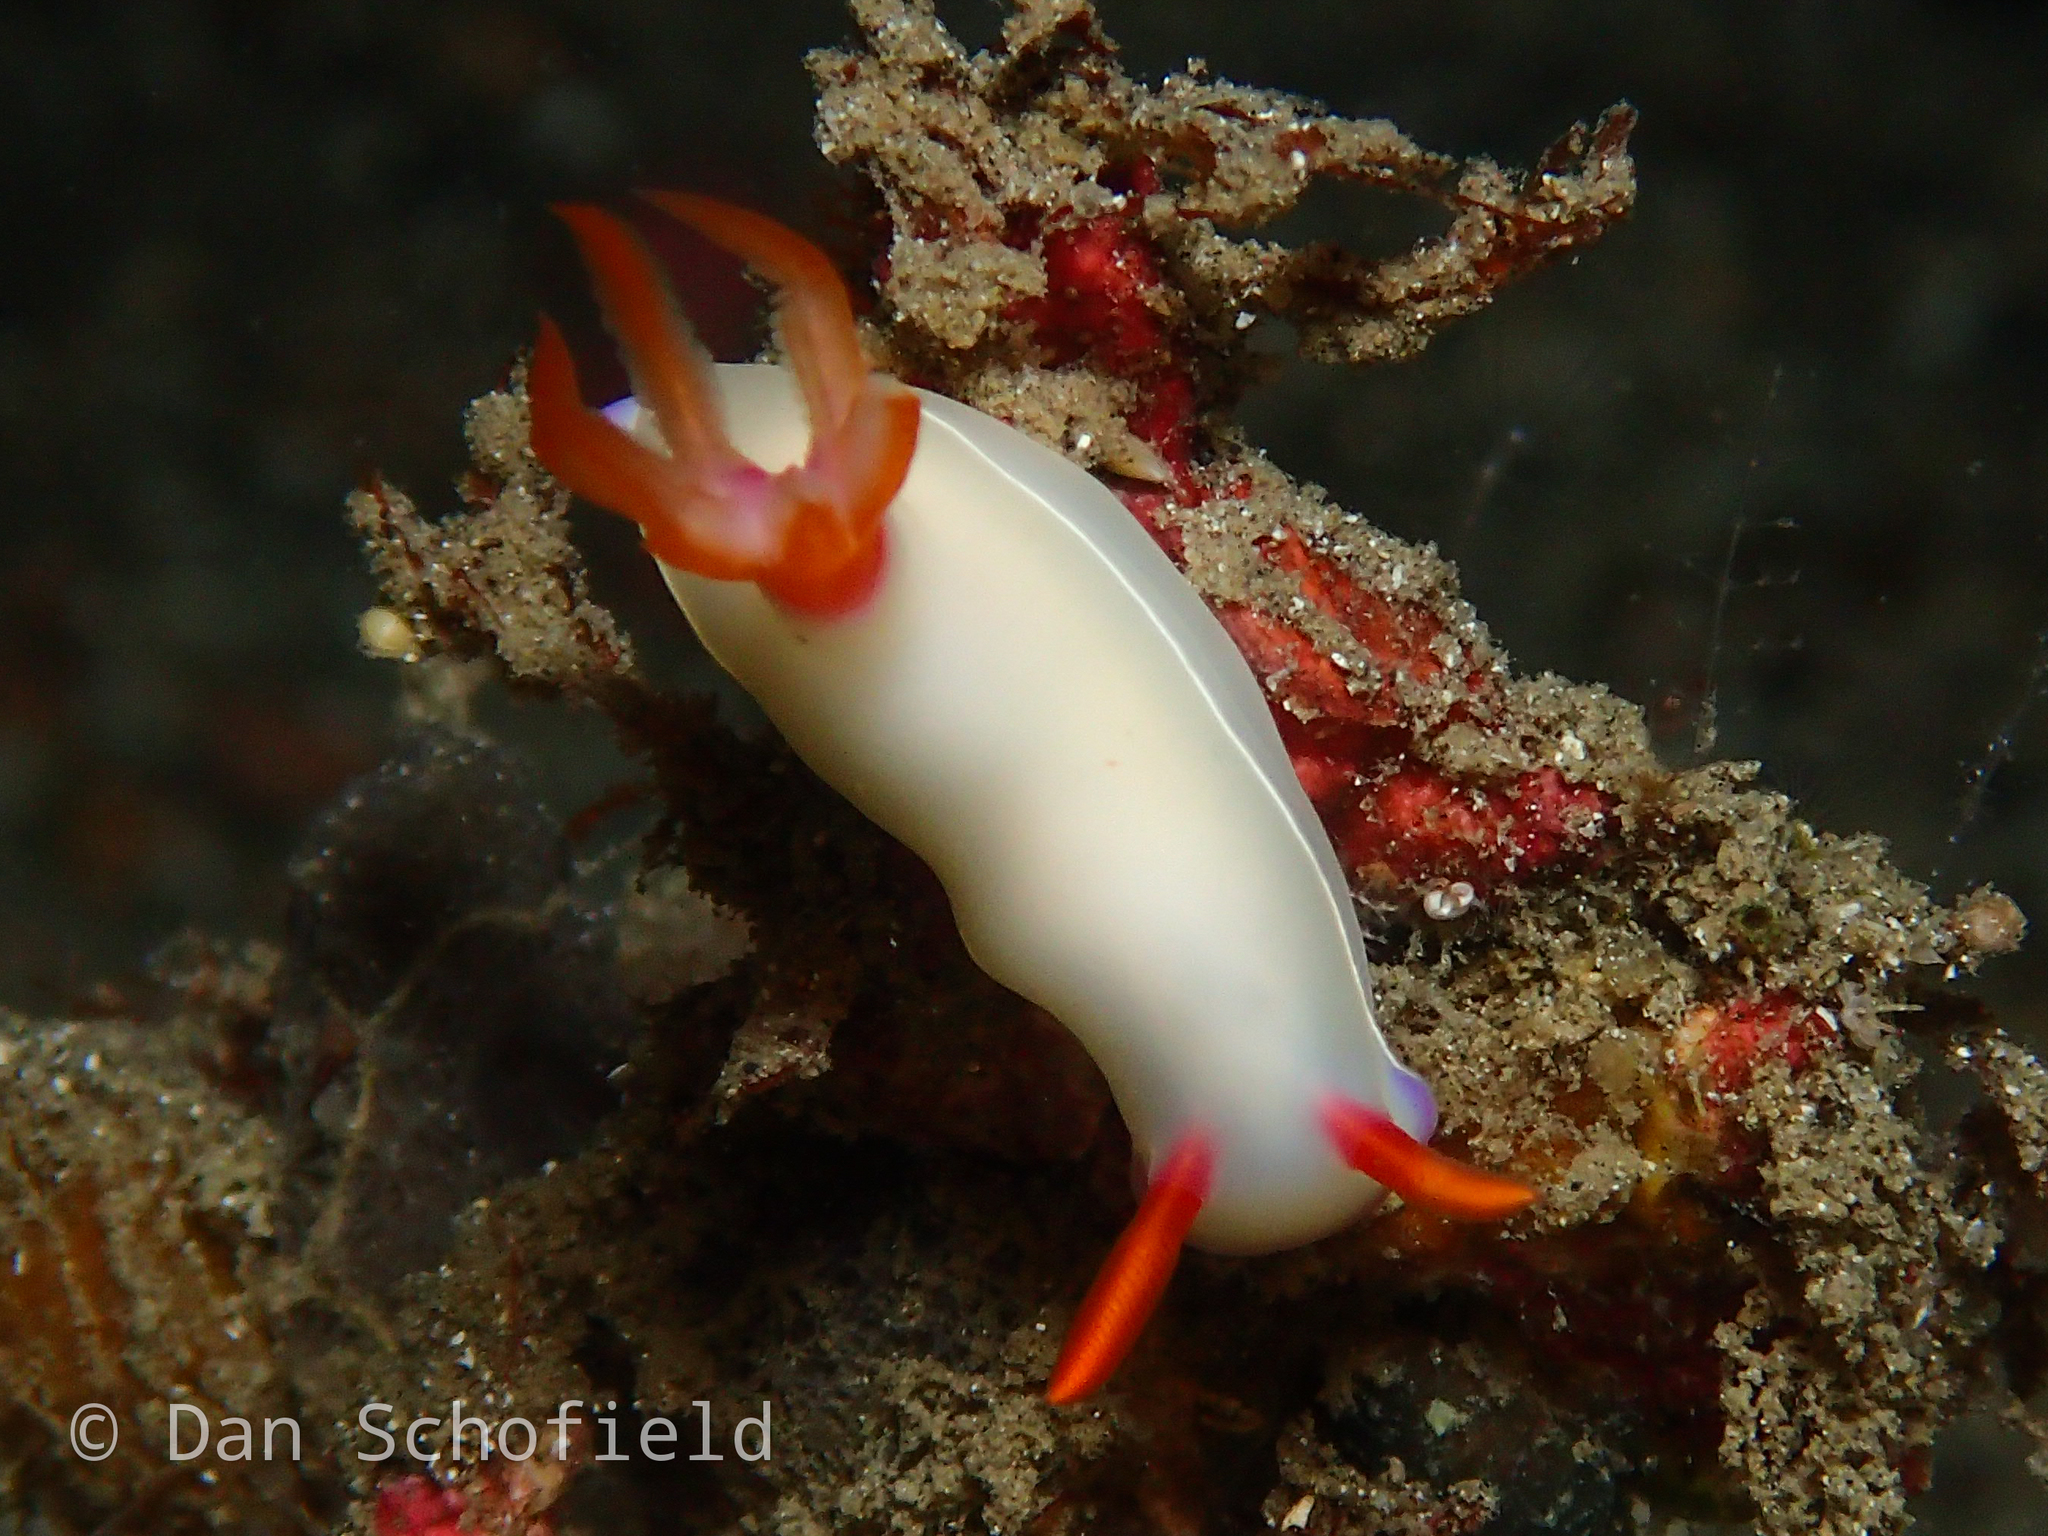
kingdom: Animalia
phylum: Mollusca
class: Gastropoda
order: Nudibranchia
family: Chromodorididae
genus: Hypselodoris
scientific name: Hypselodoris bullockii
